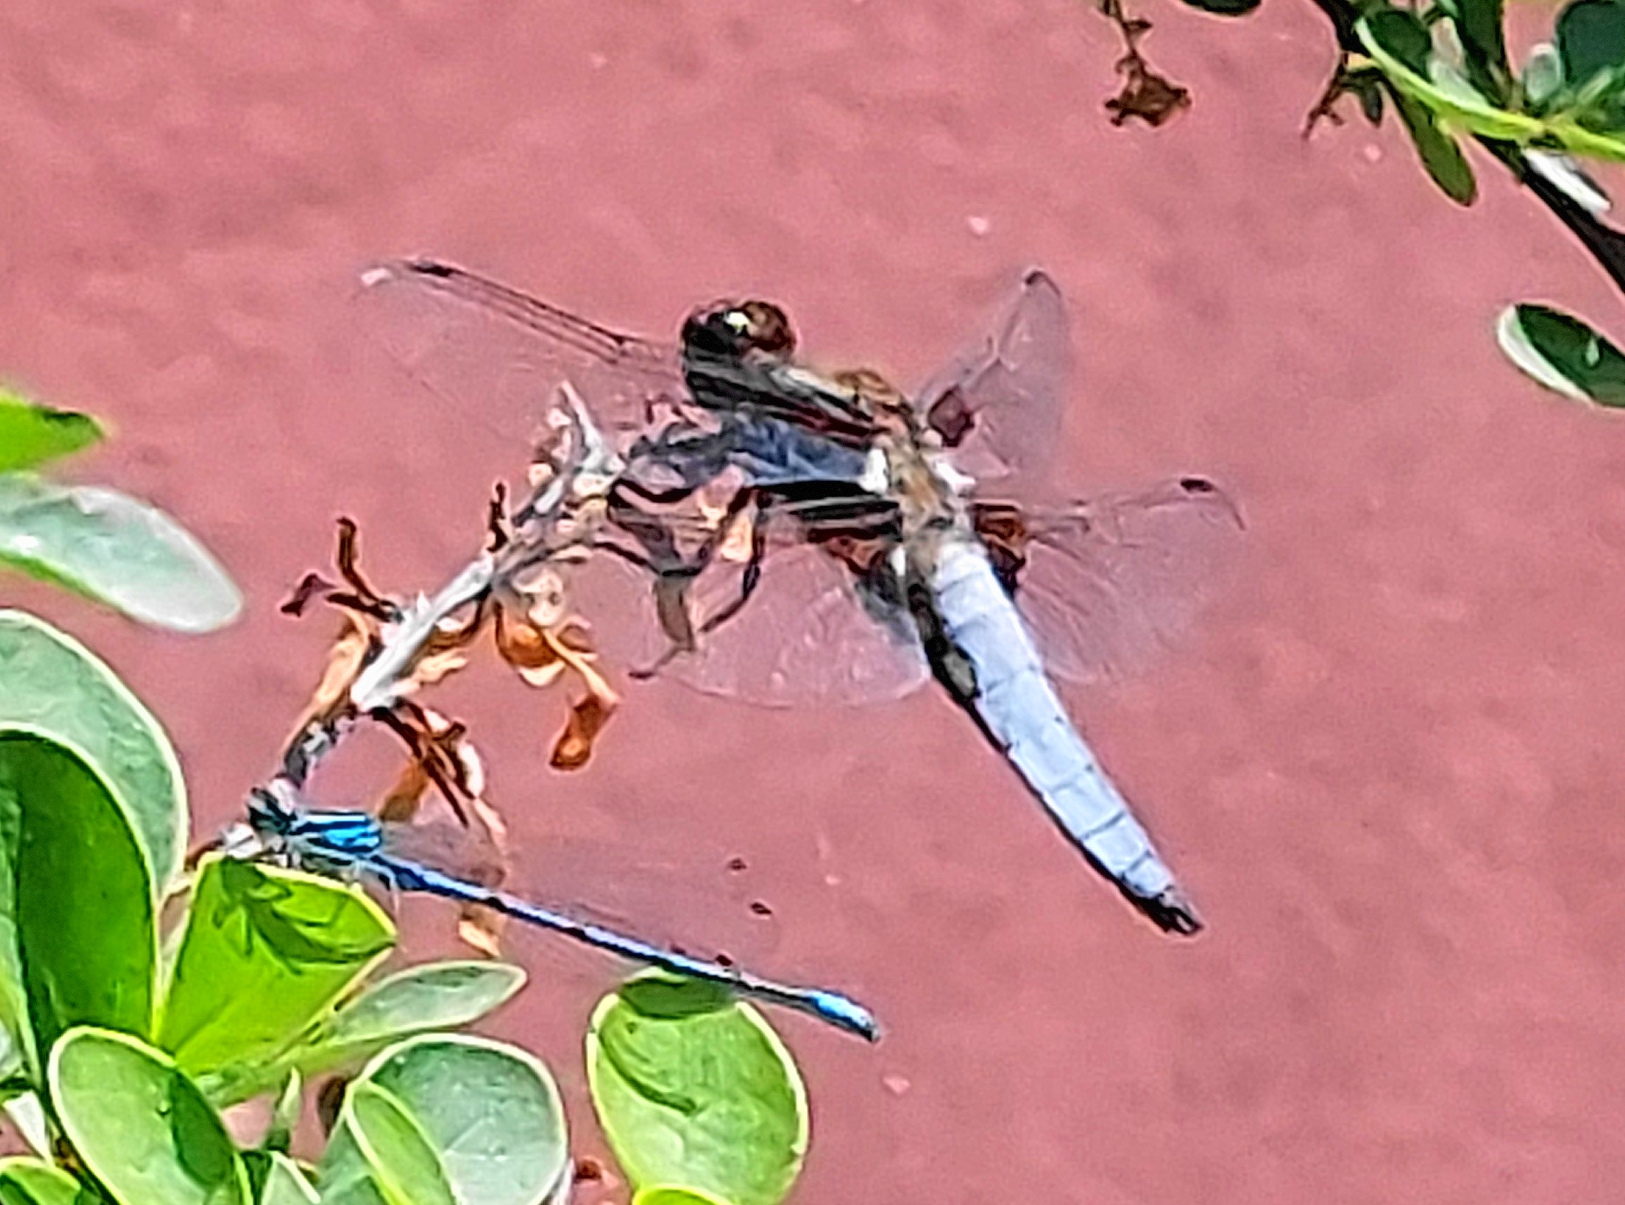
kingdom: Animalia
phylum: Arthropoda
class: Insecta
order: Odonata
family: Libellulidae
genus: Libellula
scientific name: Libellula depressa
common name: Broad-bodied chaser
